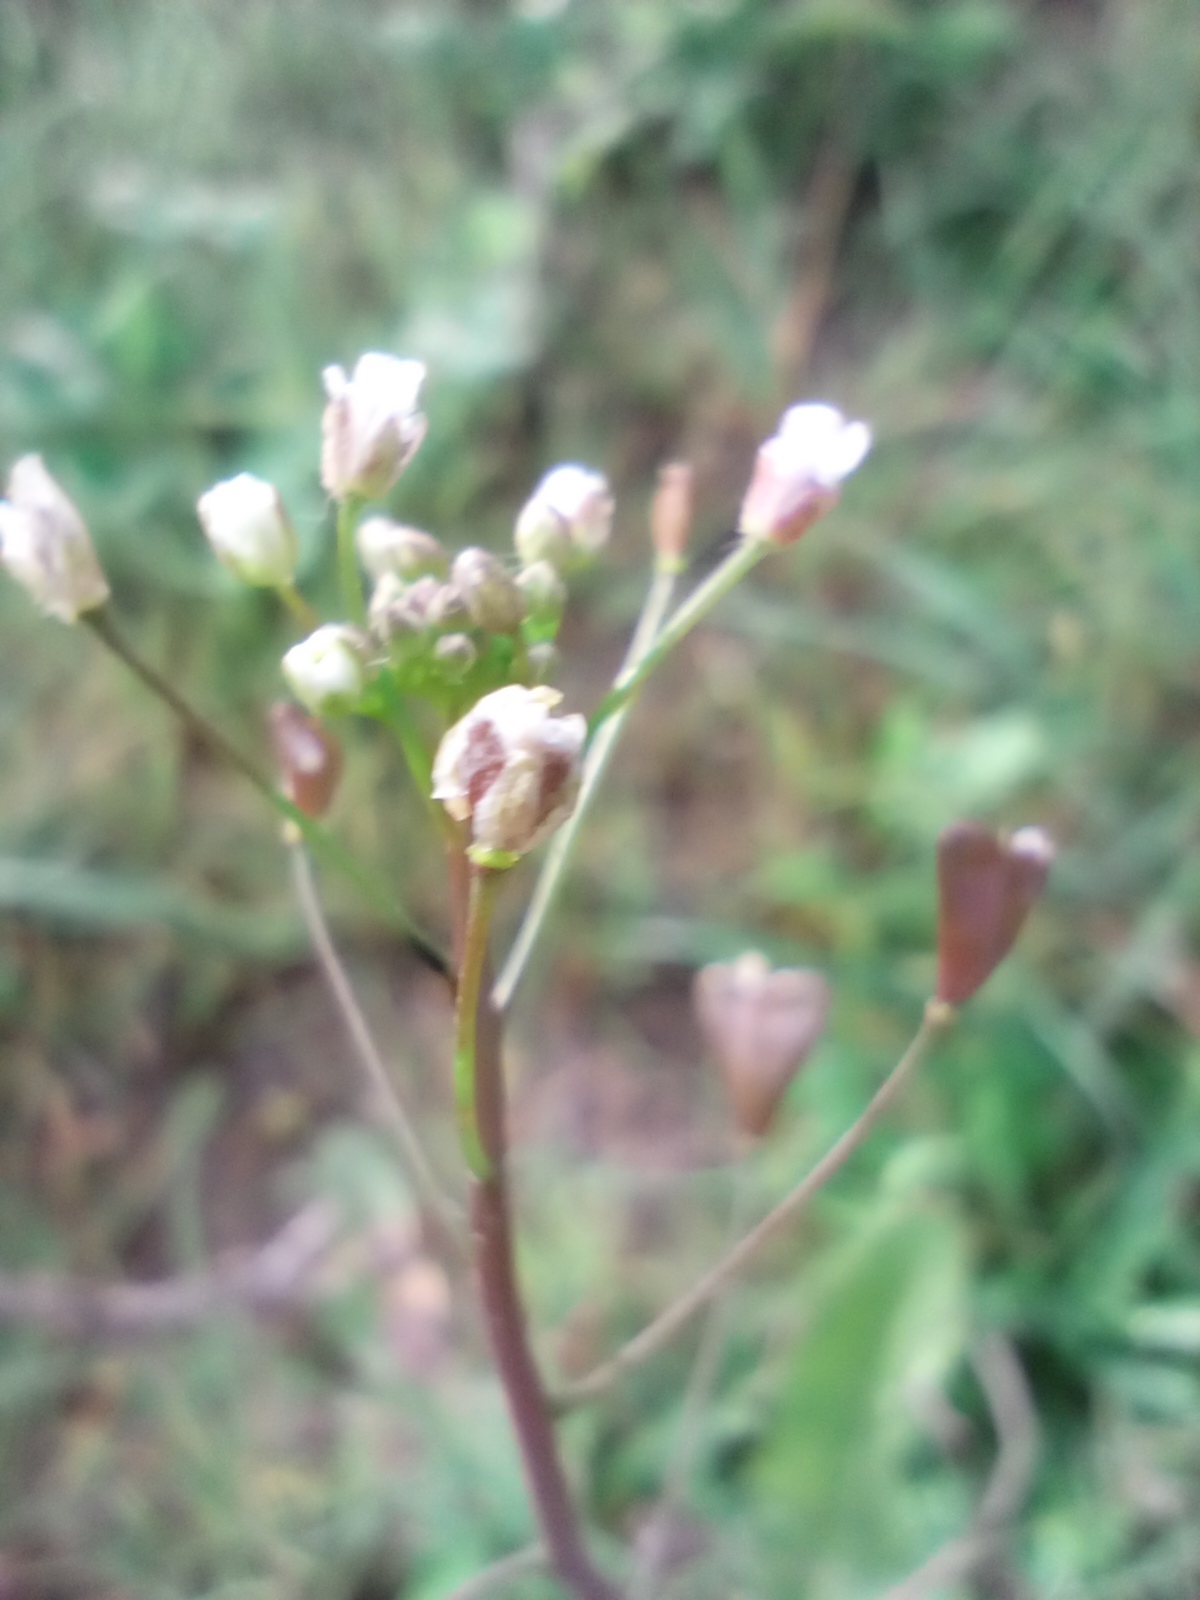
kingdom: Plantae
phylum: Tracheophyta
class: Magnoliopsida
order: Brassicales
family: Brassicaceae
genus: Capsella
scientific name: Capsella bursa-pastoris
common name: Shepherd's purse
